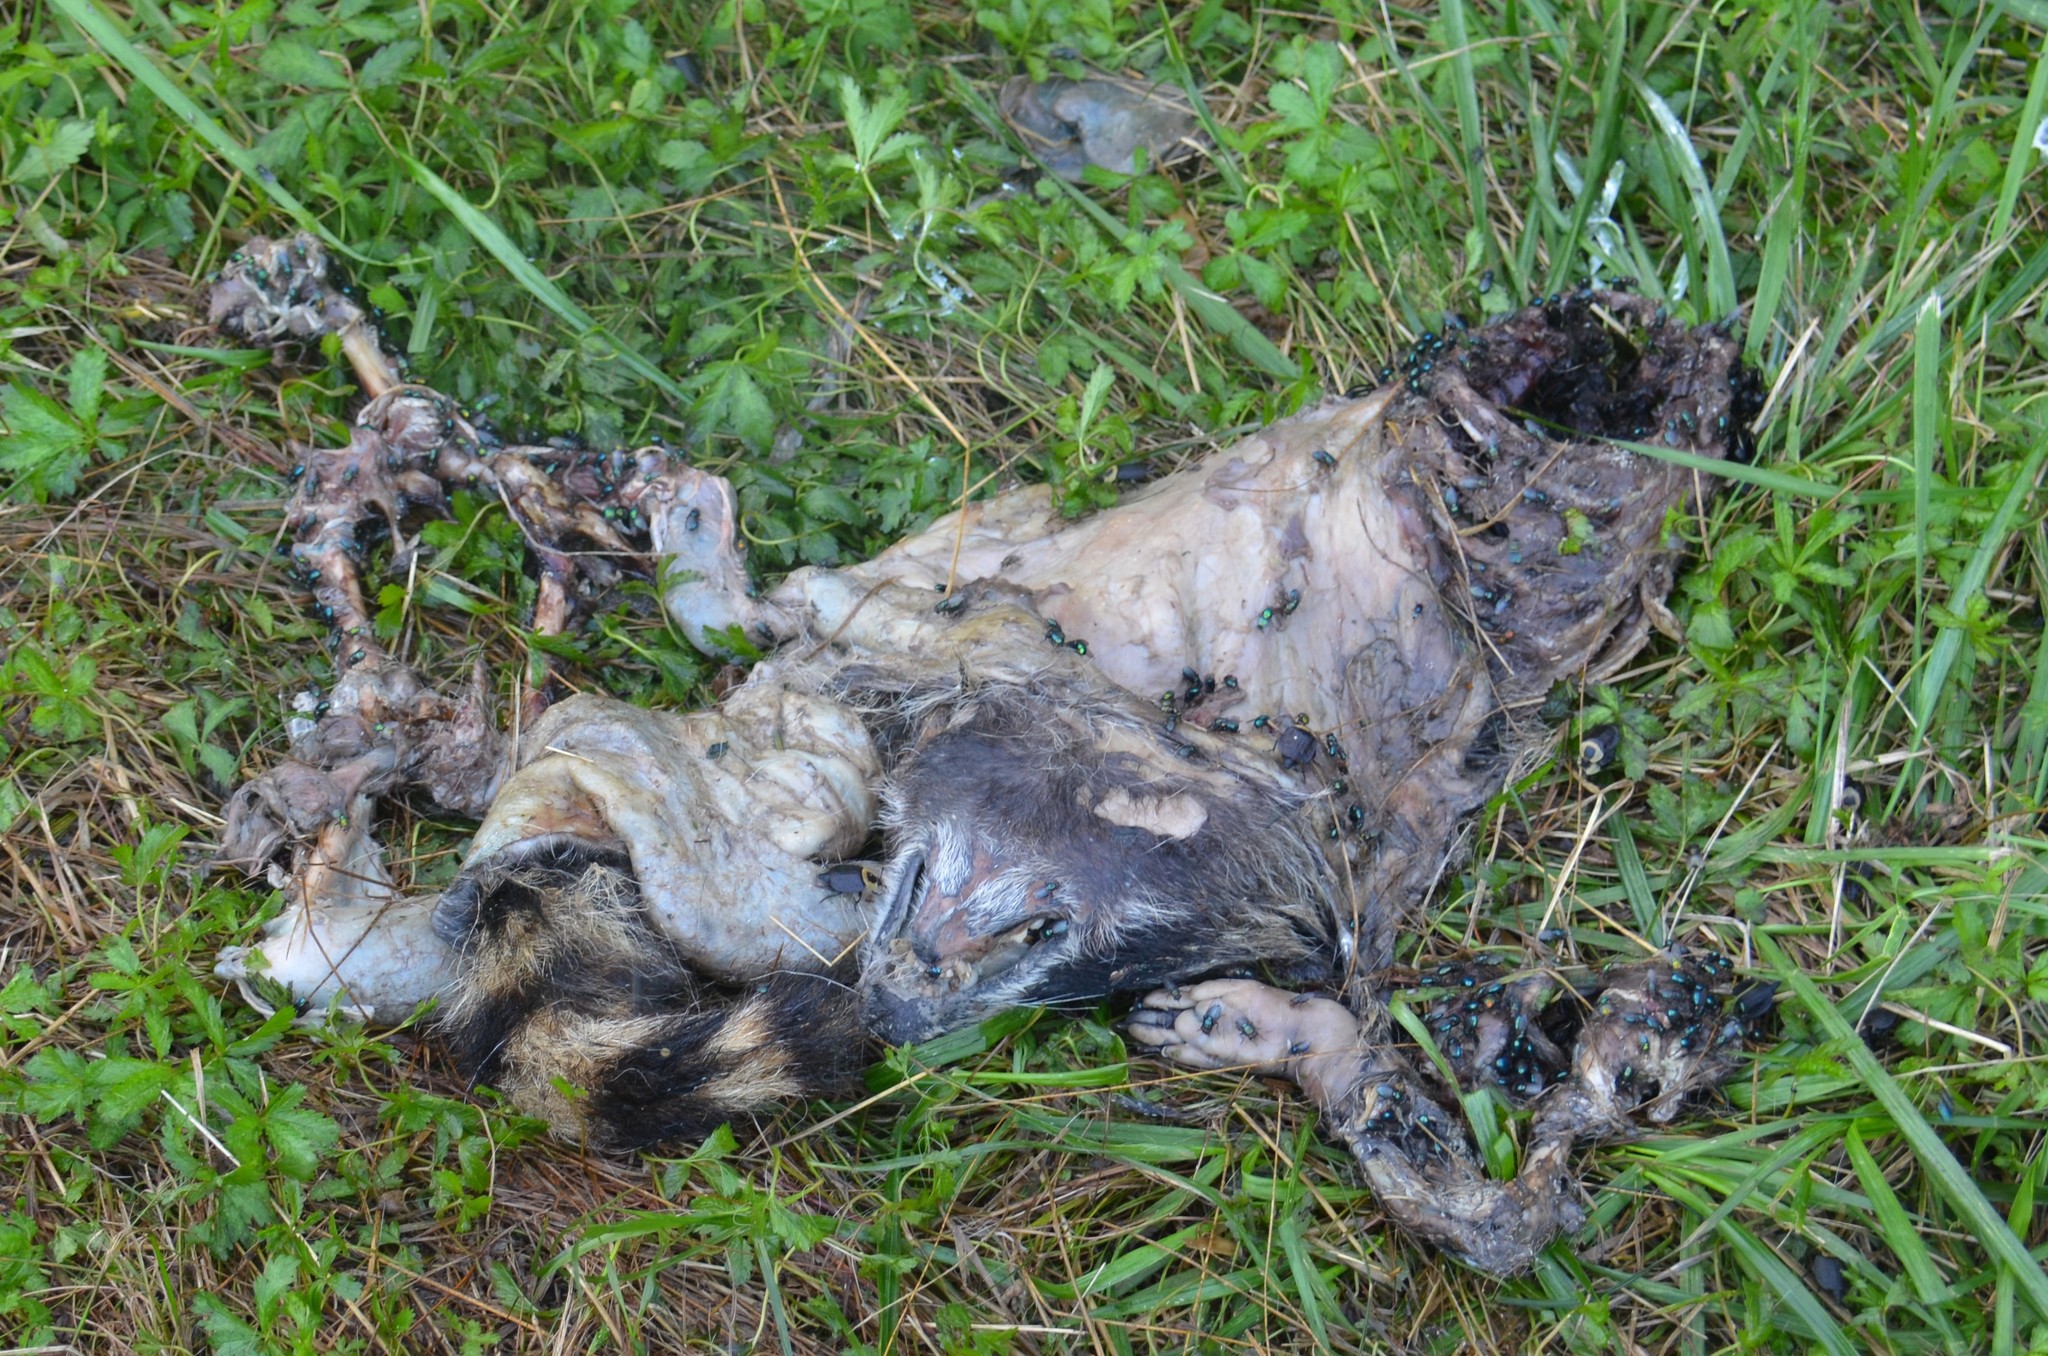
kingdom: Animalia
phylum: Chordata
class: Mammalia
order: Carnivora
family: Procyonidae
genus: Procyon
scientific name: Procyon lotor
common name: Raccoon
